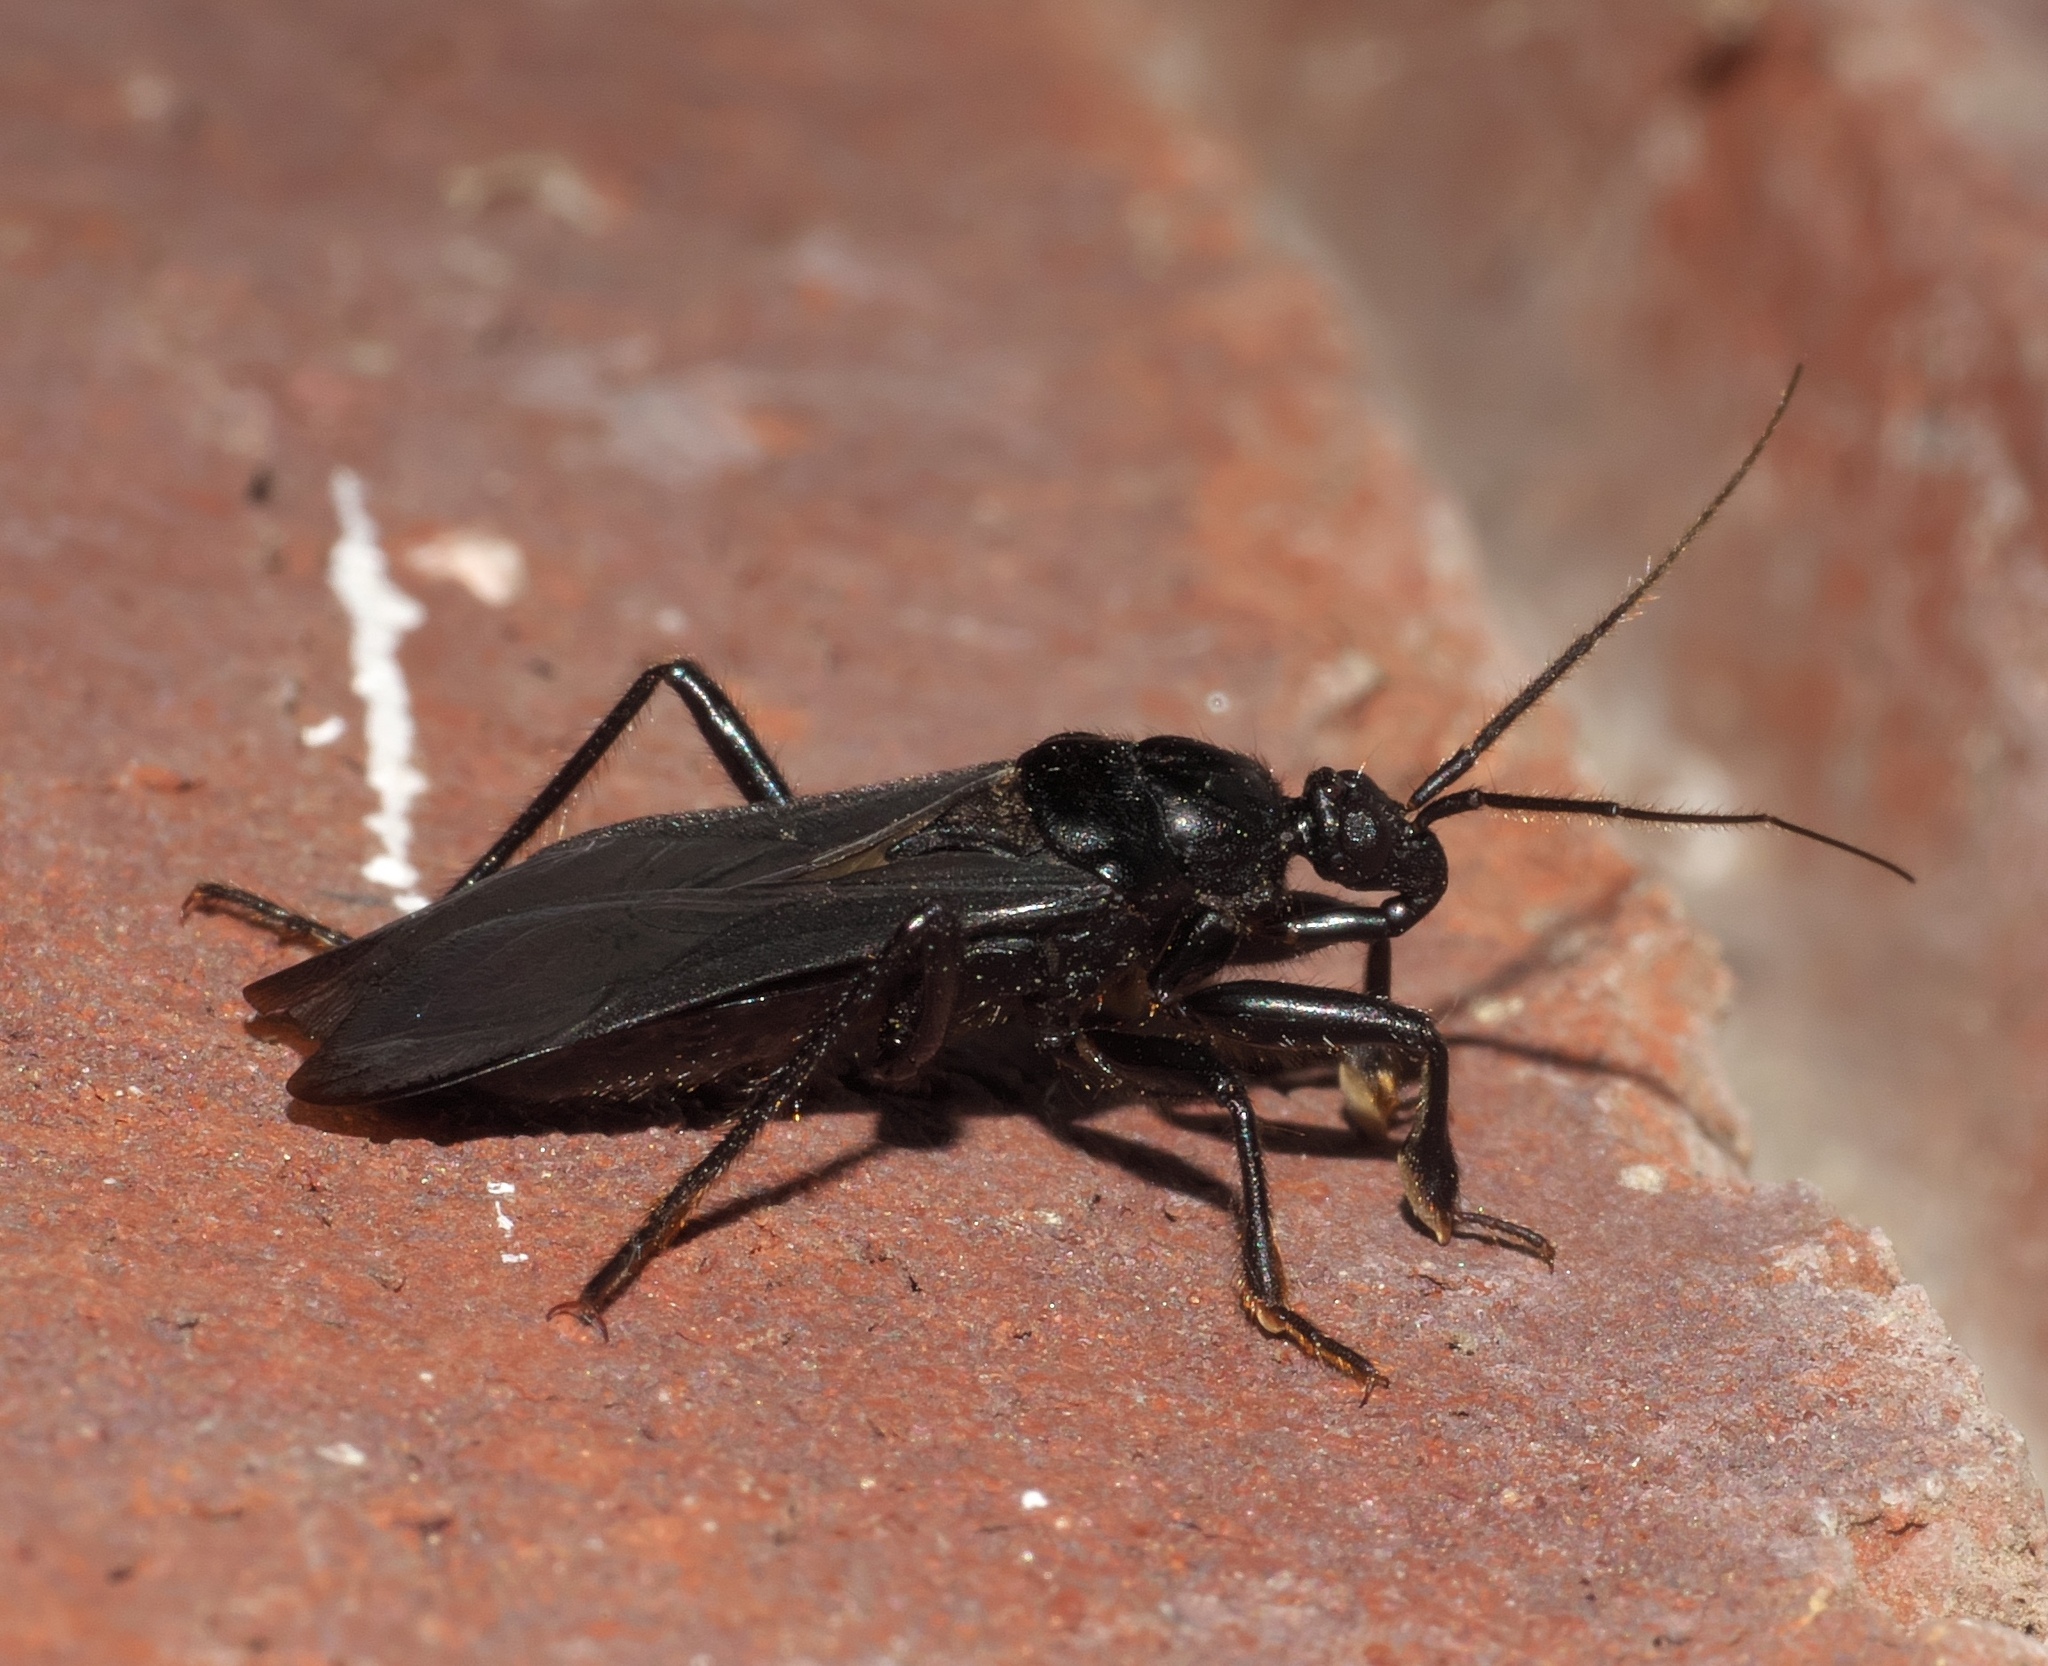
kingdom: Animalia
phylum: Arthropoda
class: Insecta
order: Hemiptera
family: Reduviidae
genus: Melanolestes
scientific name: Melanolestes picipes
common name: Assassin bug
